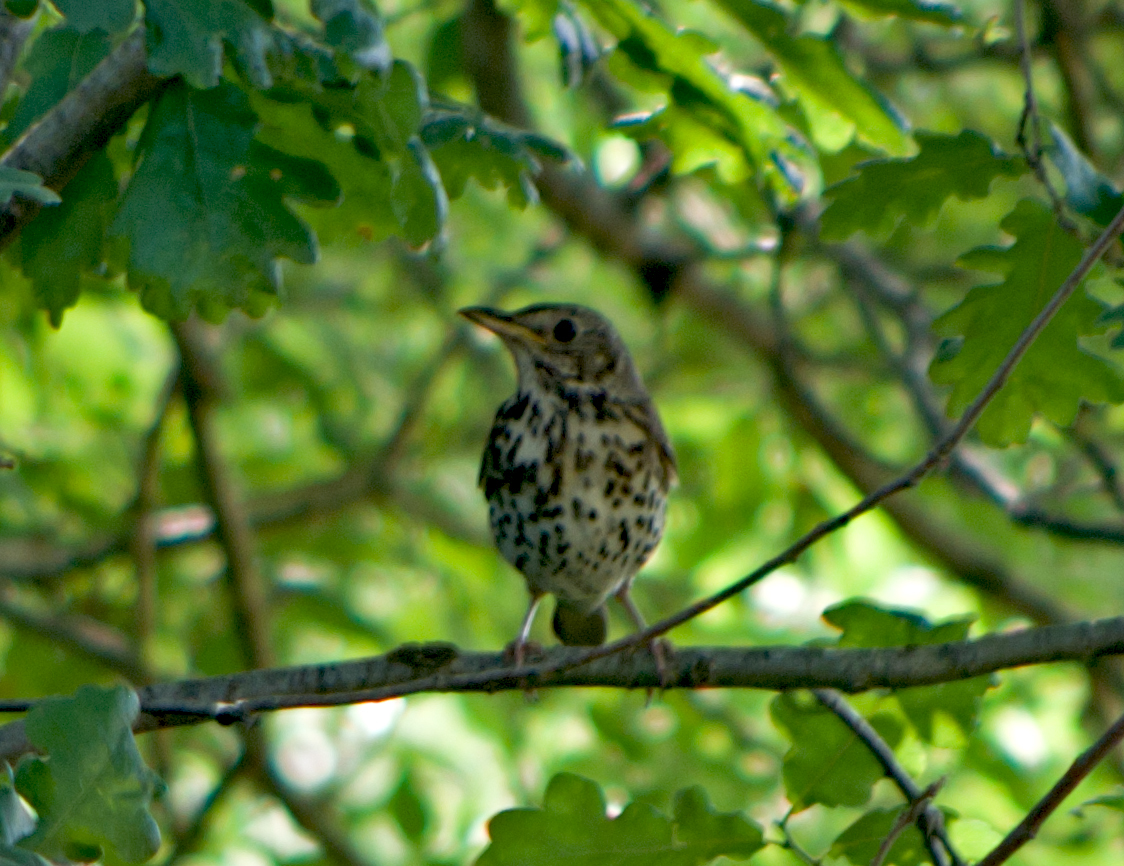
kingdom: Animalia
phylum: Chordata
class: Aves
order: Passeriformes
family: Turdidae
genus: Turdus
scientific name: Turdus philomelos
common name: Song thrush
